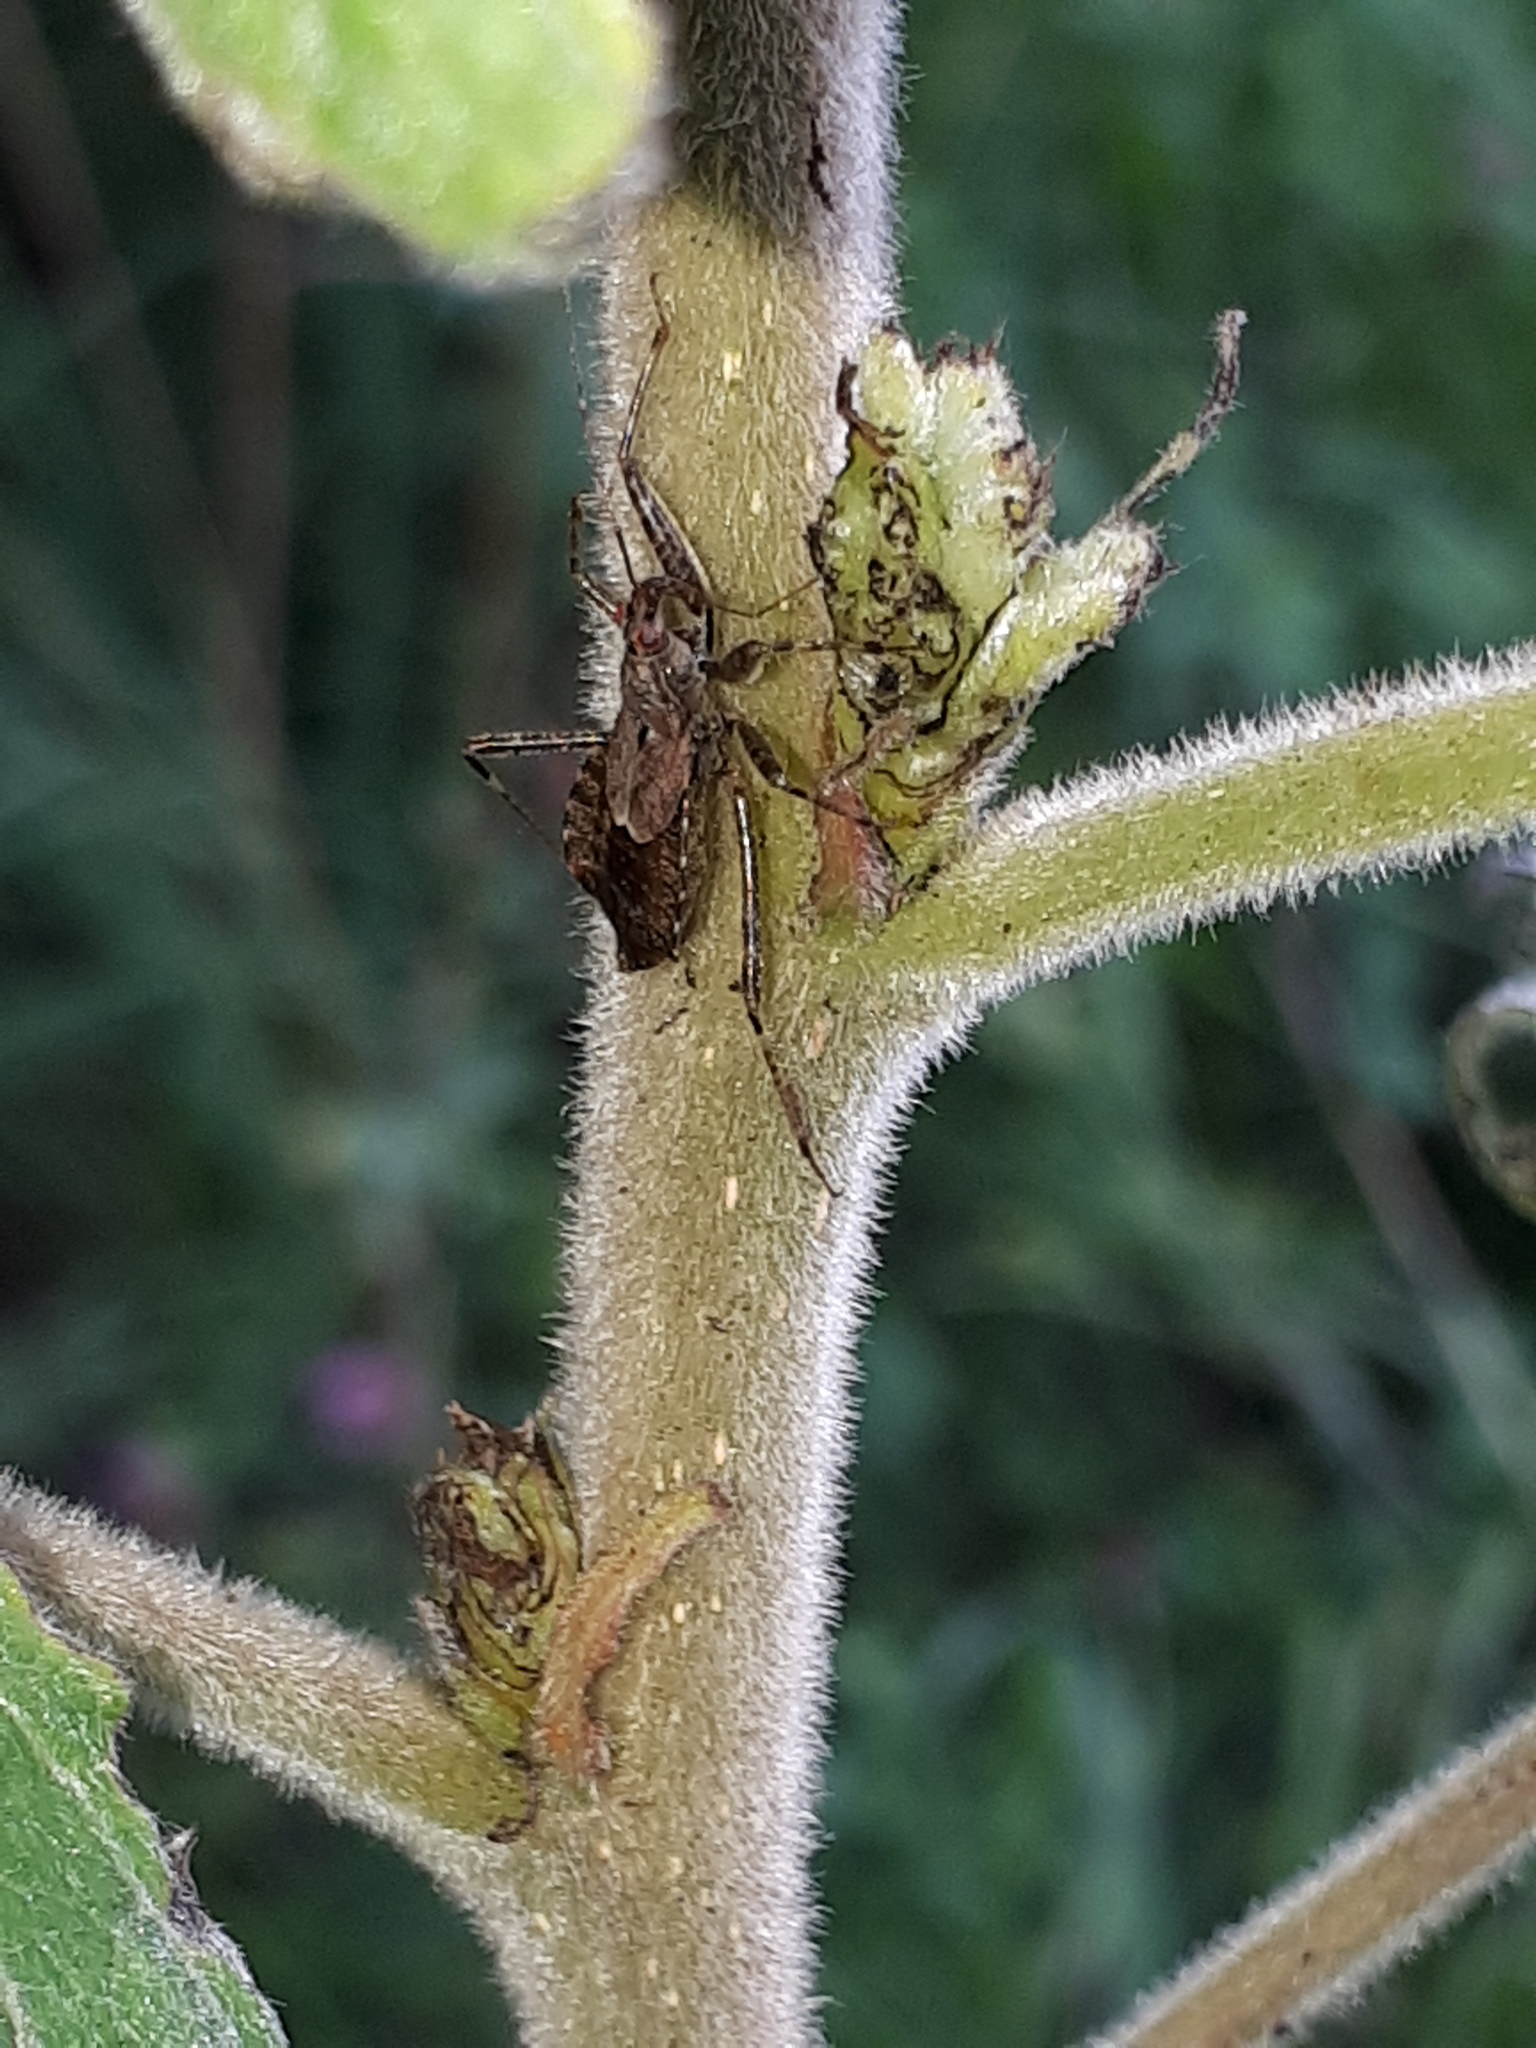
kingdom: Animalia
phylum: Arthropoda
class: Insecta
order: Hemiptera
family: Nabidae
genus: Himacerus
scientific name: Himacerus apterus
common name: Tree damsel bug
